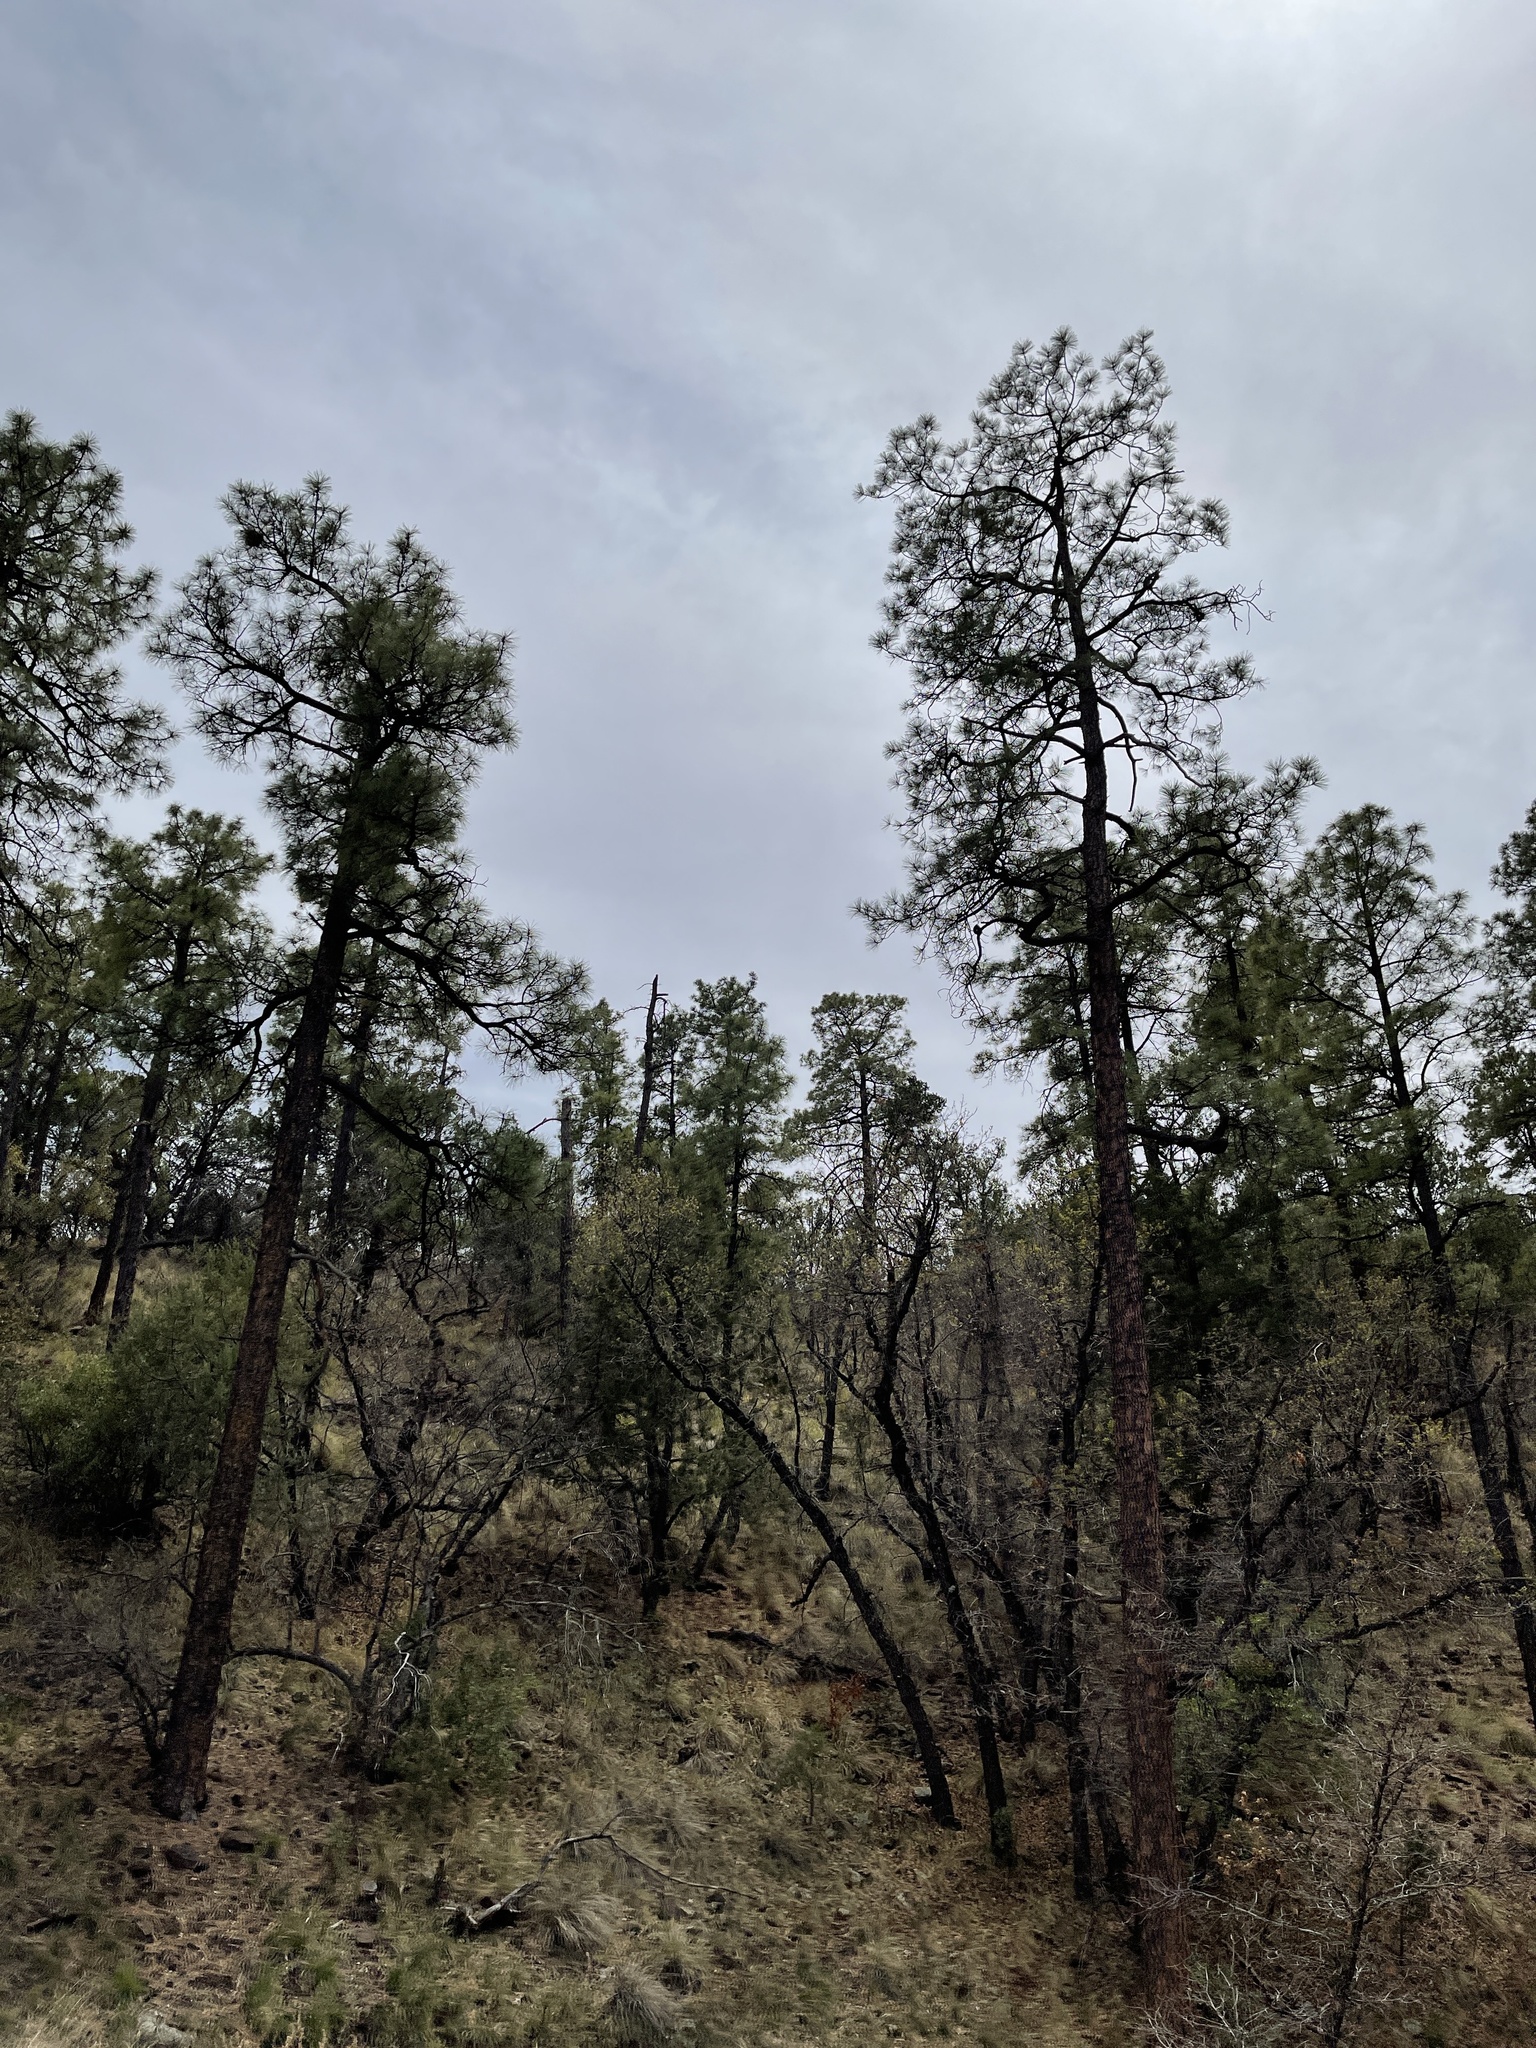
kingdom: Plantae
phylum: Tracheophyta
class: Pinopsida
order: Pinales
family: Pinaceae
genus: Pinus
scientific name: Pinus ponderosa
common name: Western yellow-pine
